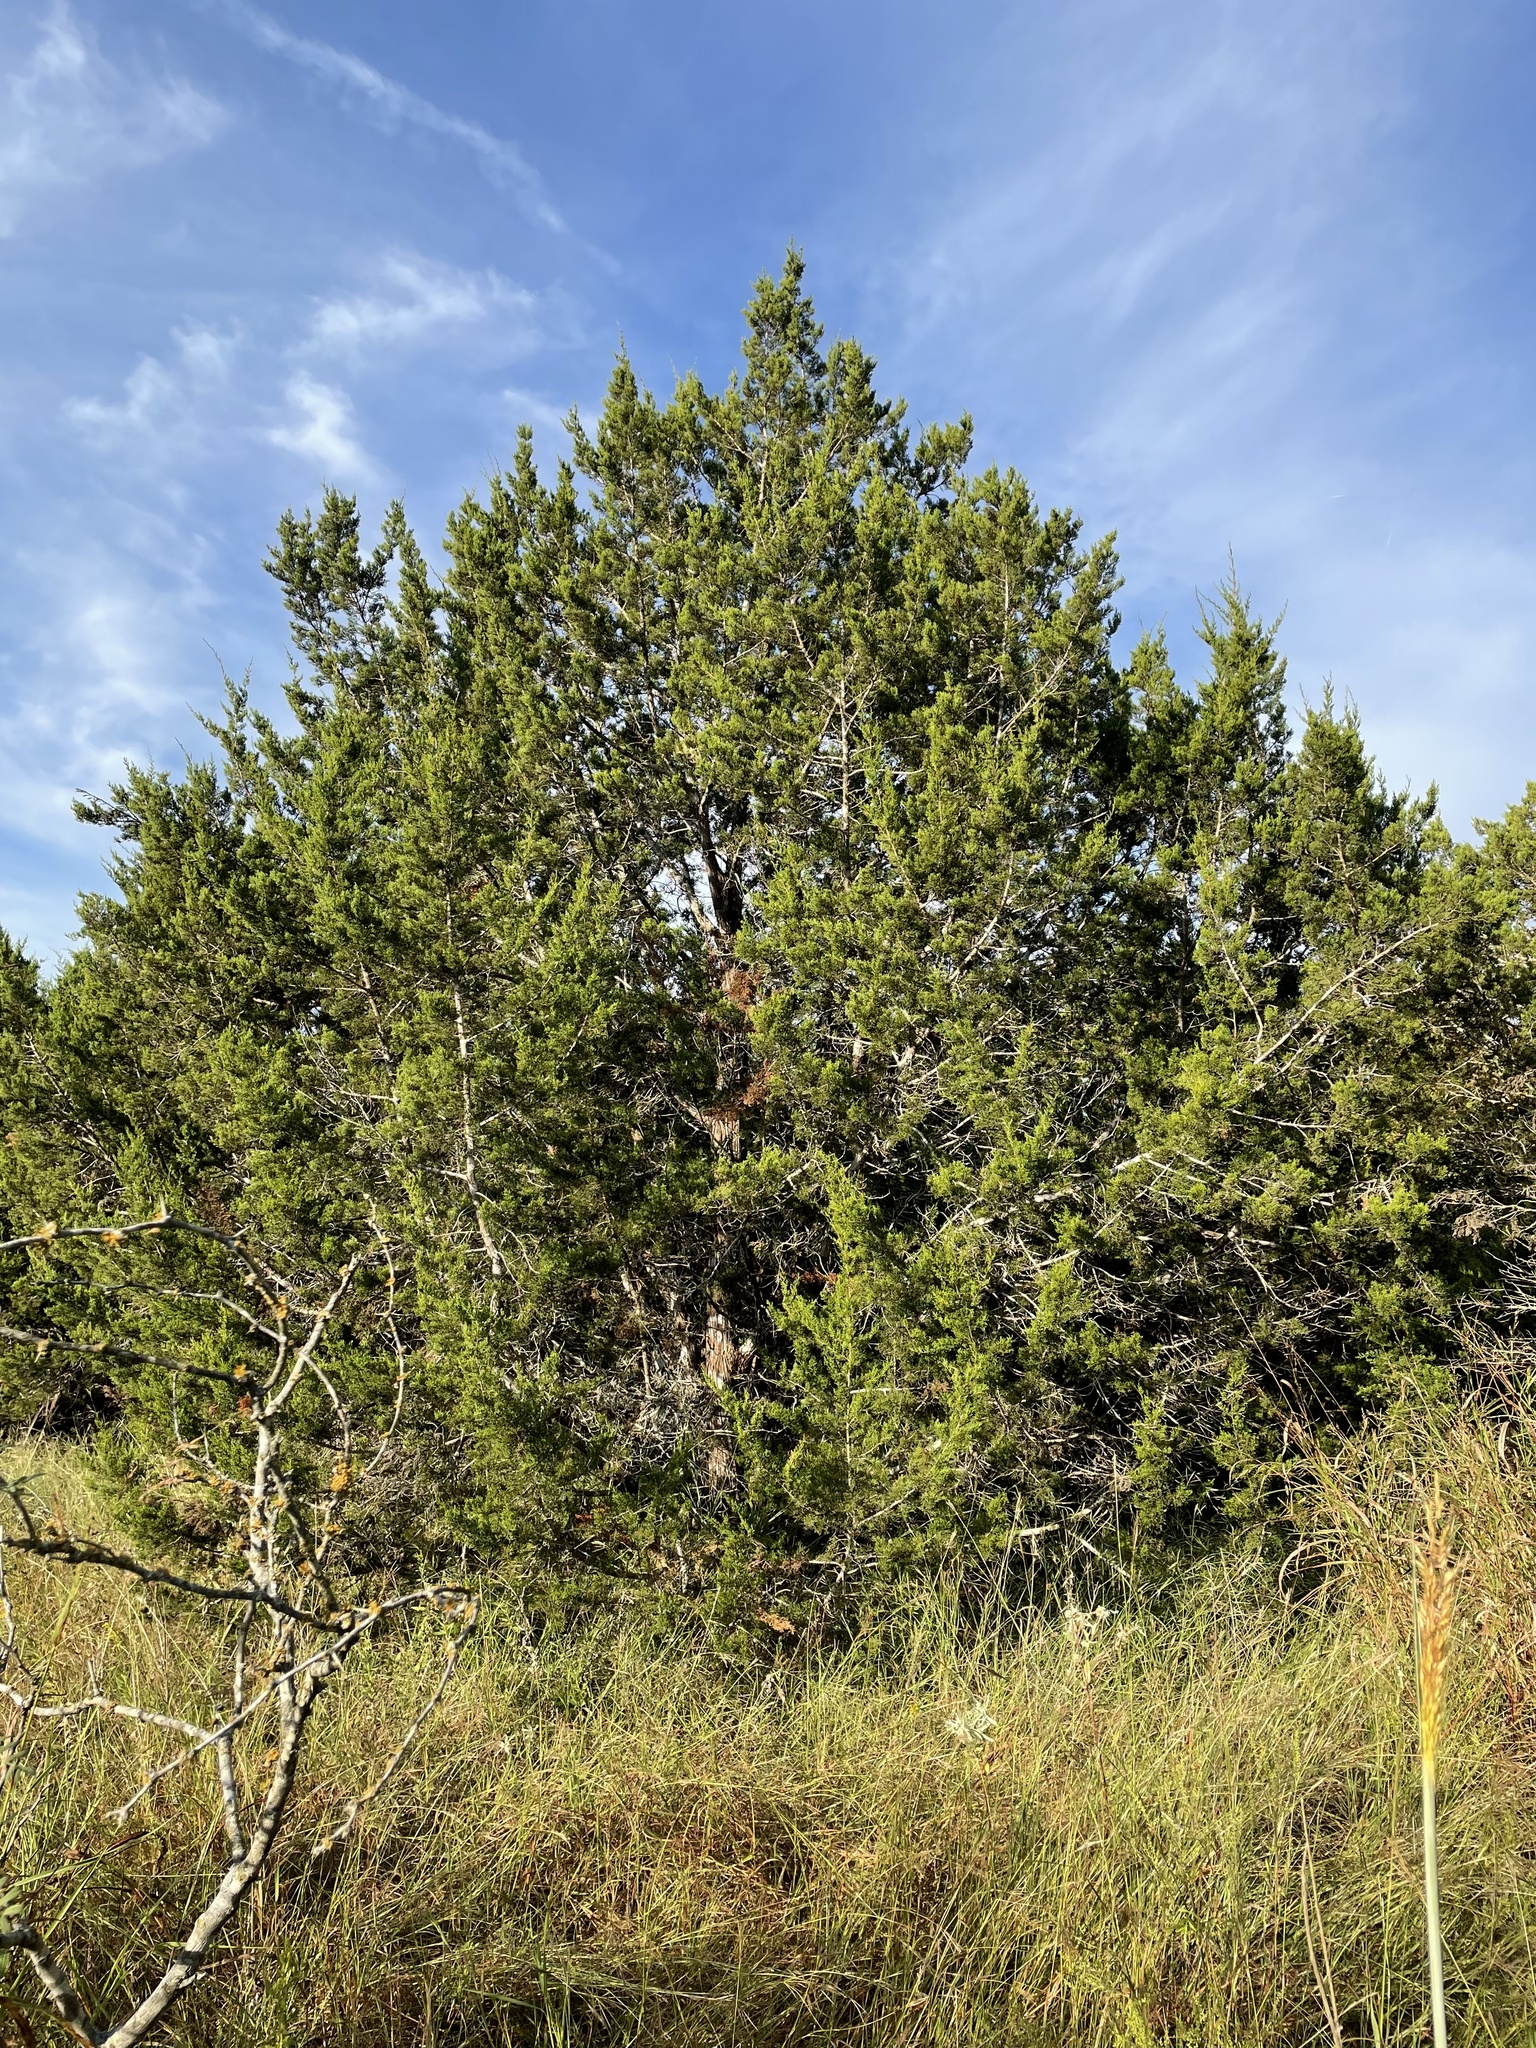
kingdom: Plantae
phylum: Tracheophyta
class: Pinopsida
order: Pinales
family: Cupressaceae
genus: Juniperus
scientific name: Juniperus ashei
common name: Mexican juniper
